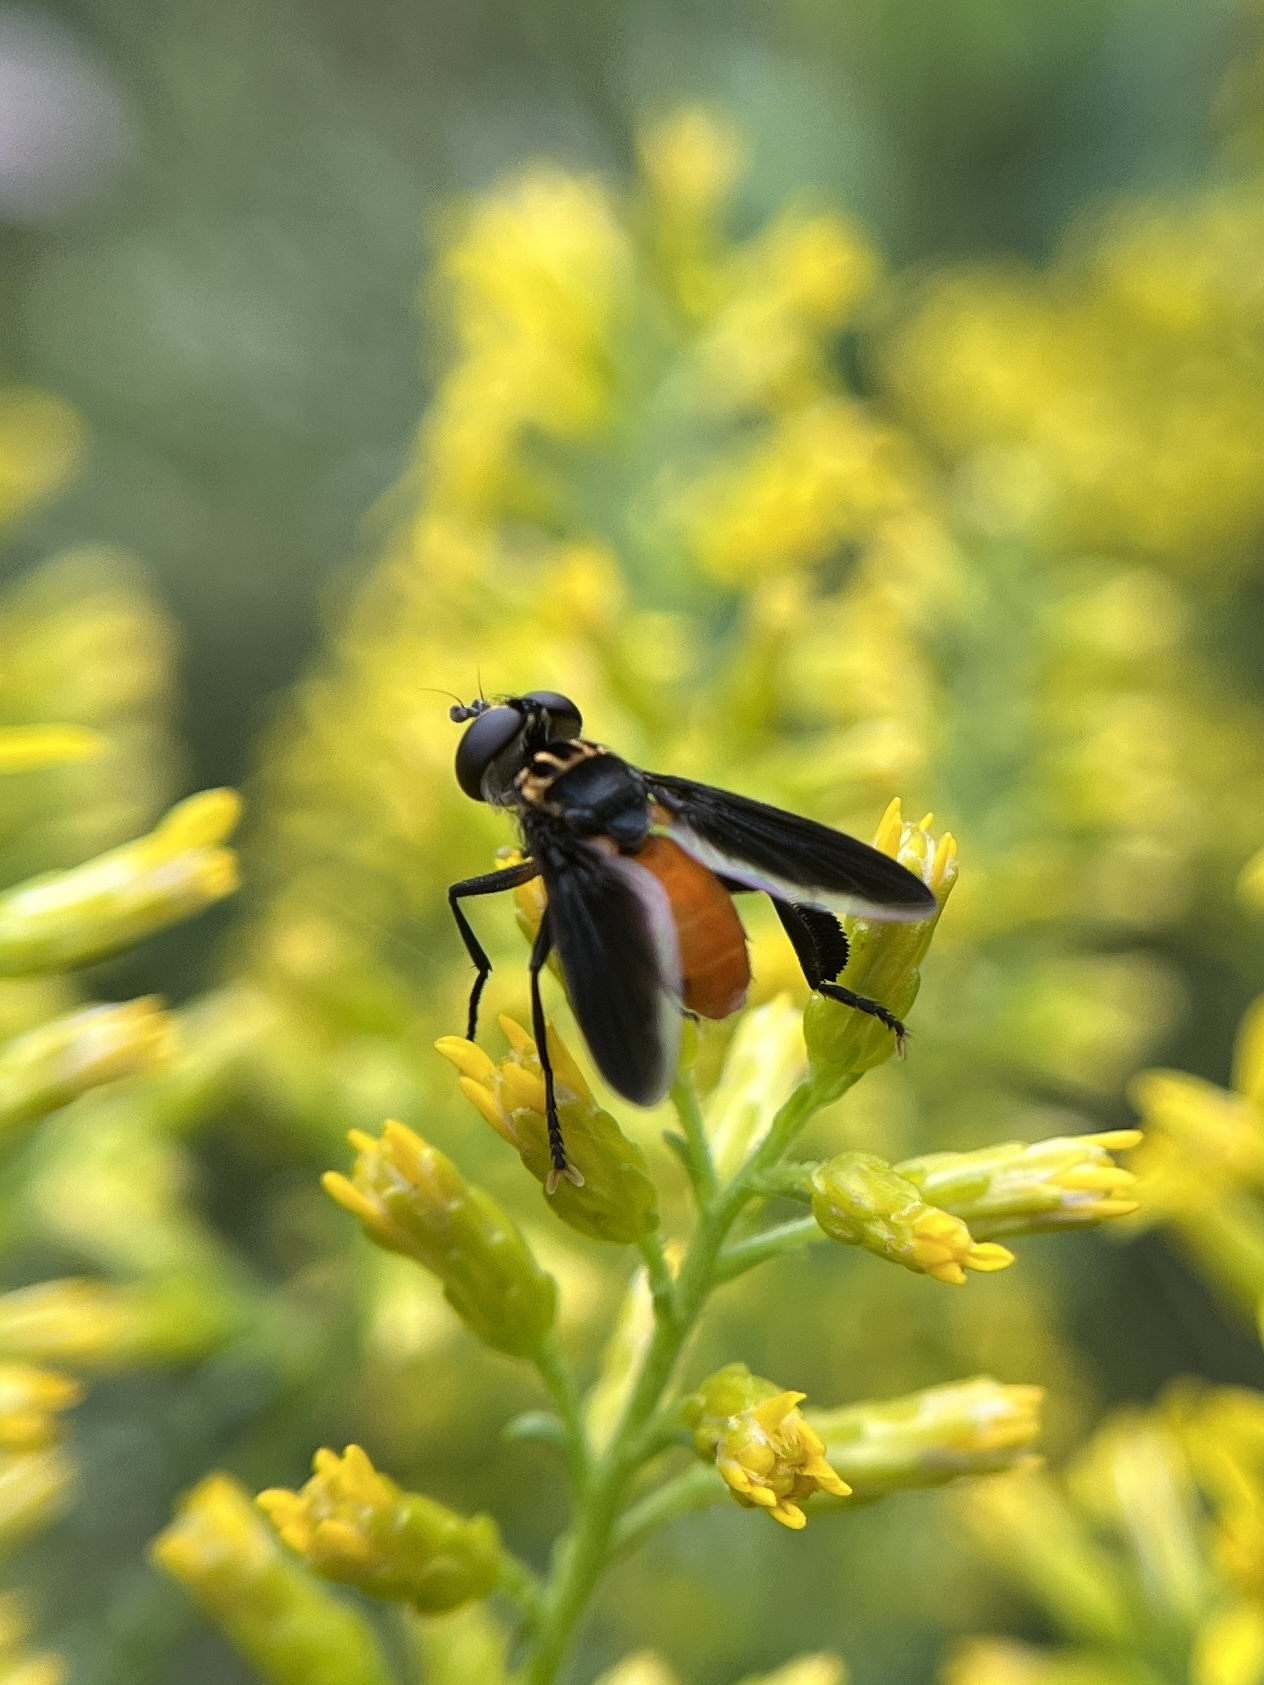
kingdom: Animalia
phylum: Arthropoda
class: Insecta
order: Diptera
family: Tachinidae
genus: Trichopoda
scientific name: Trichopoda pennipes
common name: Tachinid fly
